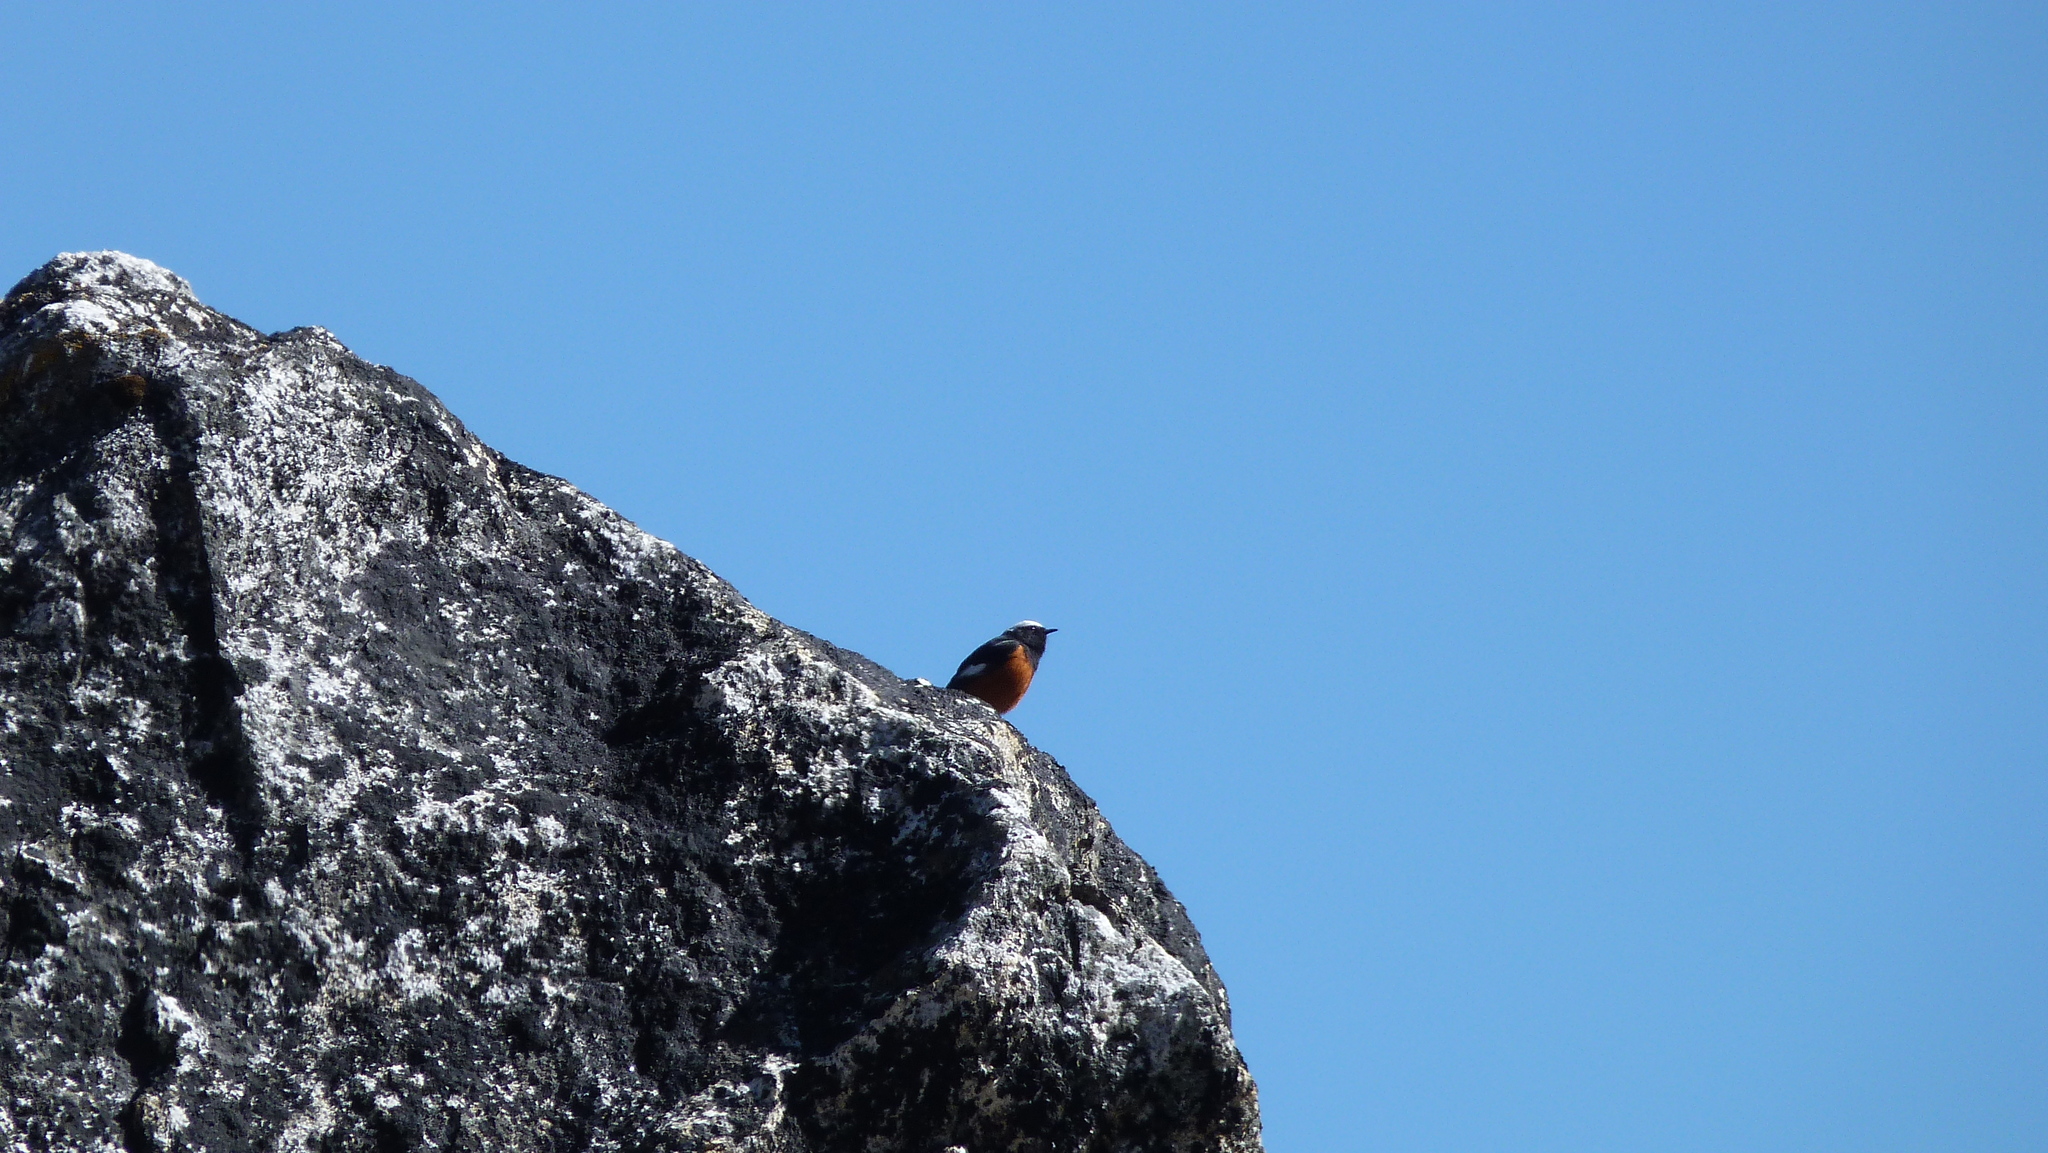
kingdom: Animalia
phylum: Chordata
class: Aves
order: Passeriformes
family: Muscicapidae
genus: Phoenicurus
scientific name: Phoenicurus erythrogastrus
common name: Güldenstädt's redstart
